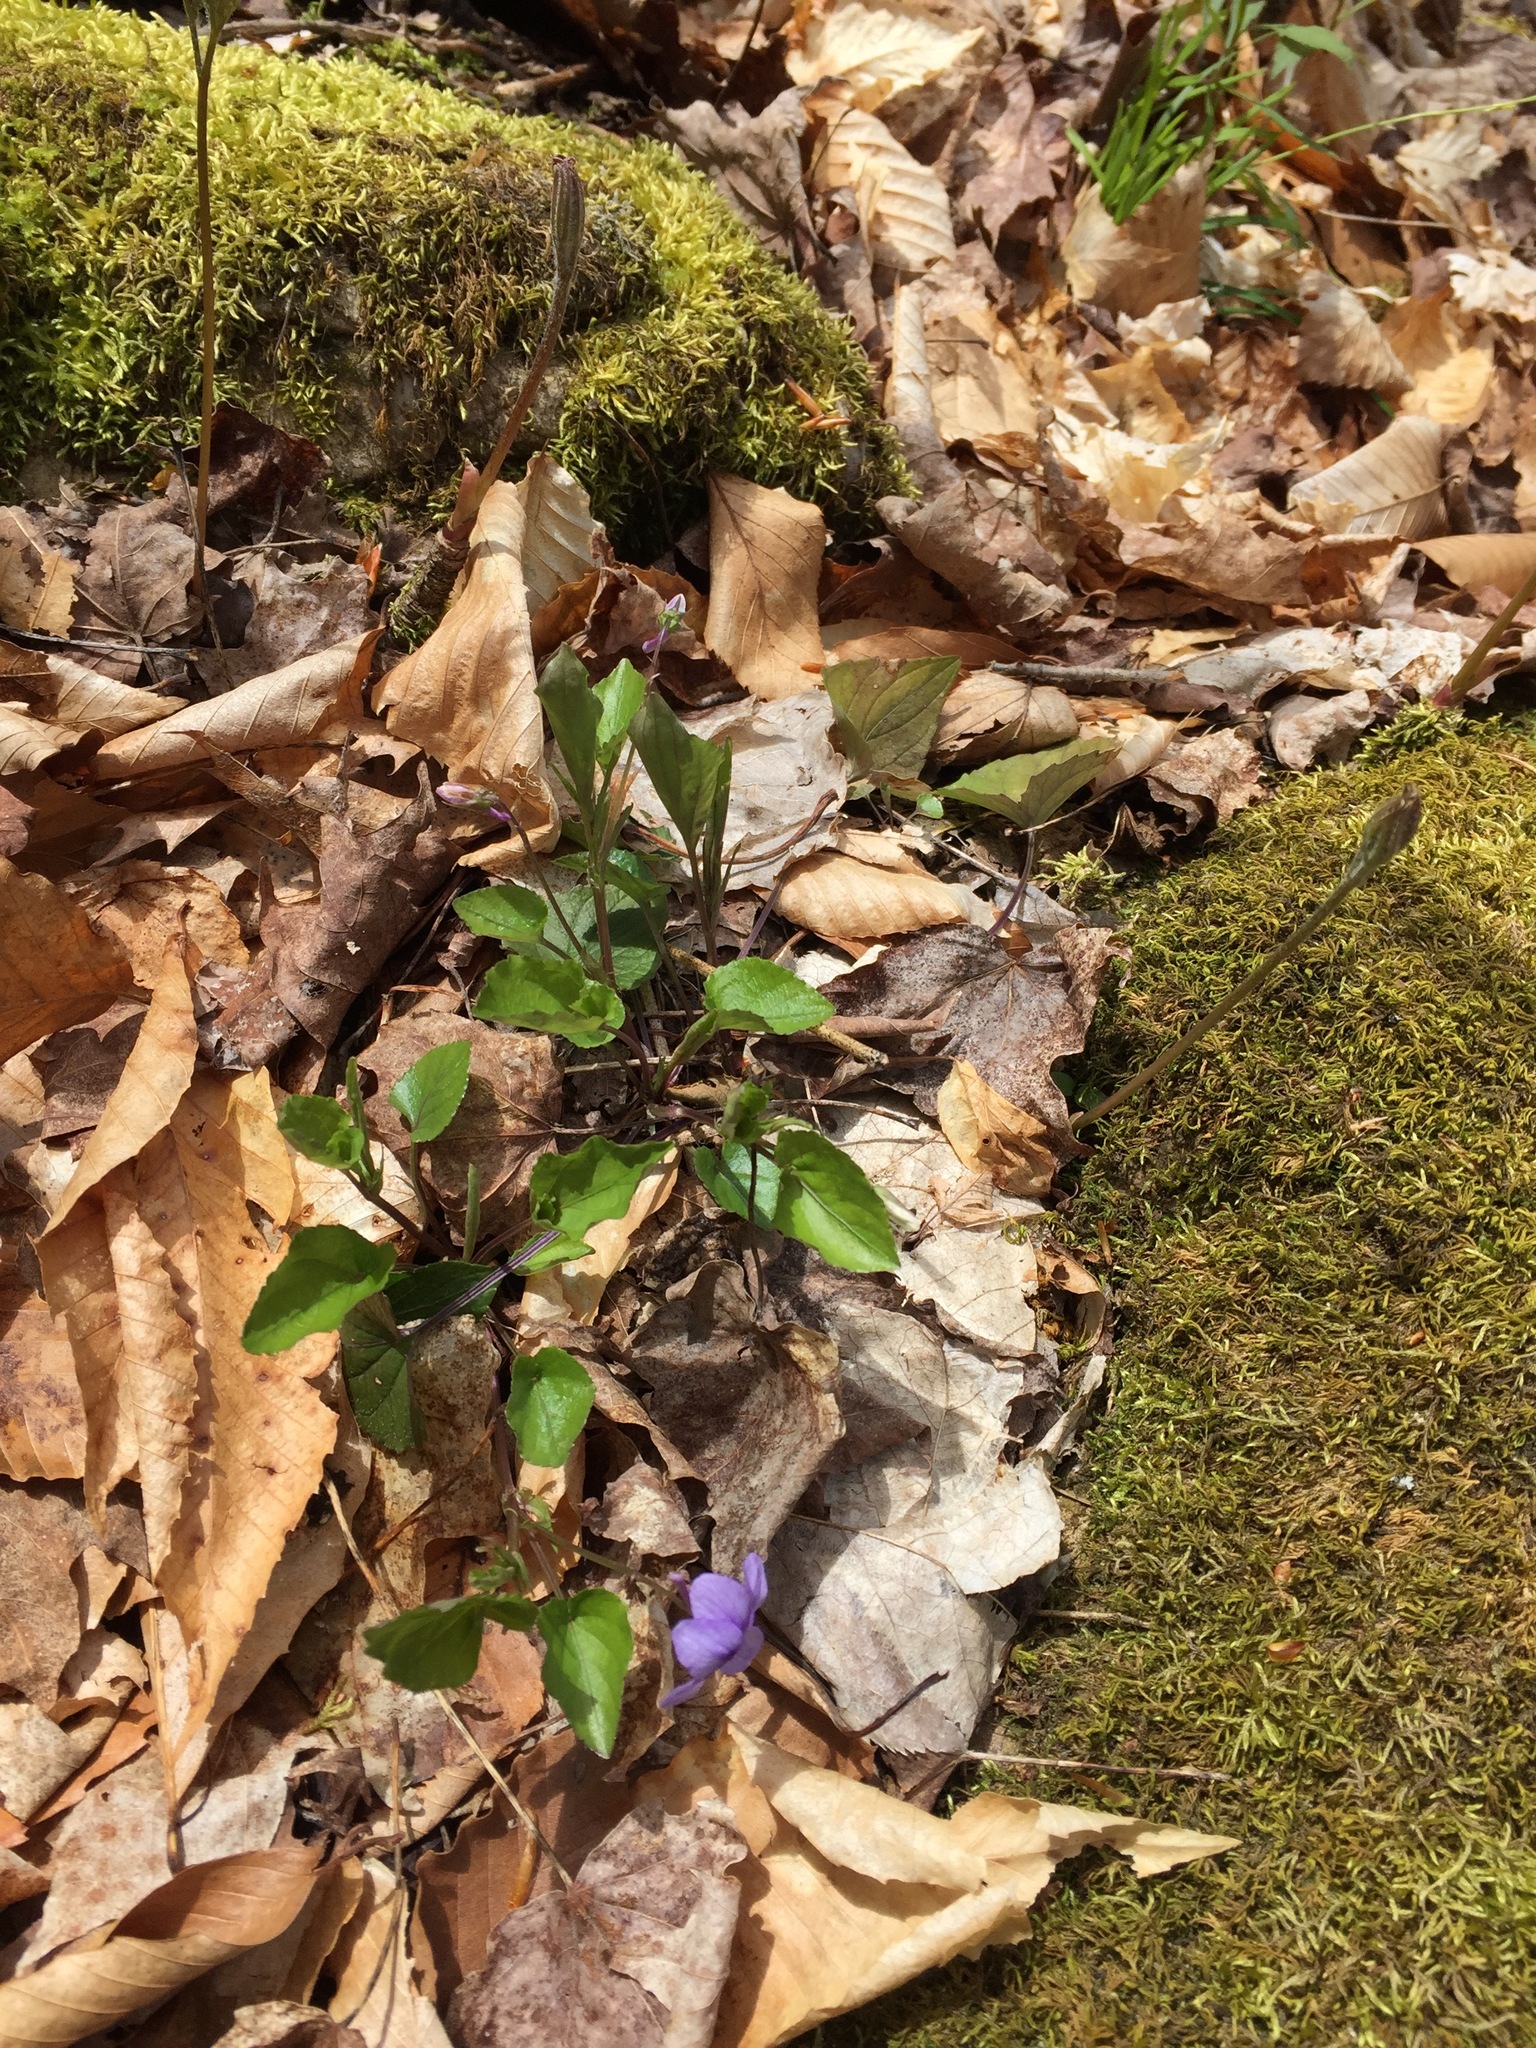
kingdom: Plantae
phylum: Tracheophyta
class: Magnoliopsida
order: Malpighiales
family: Violaceae
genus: Viola
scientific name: Viola rostrata
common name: Long-spur violet
